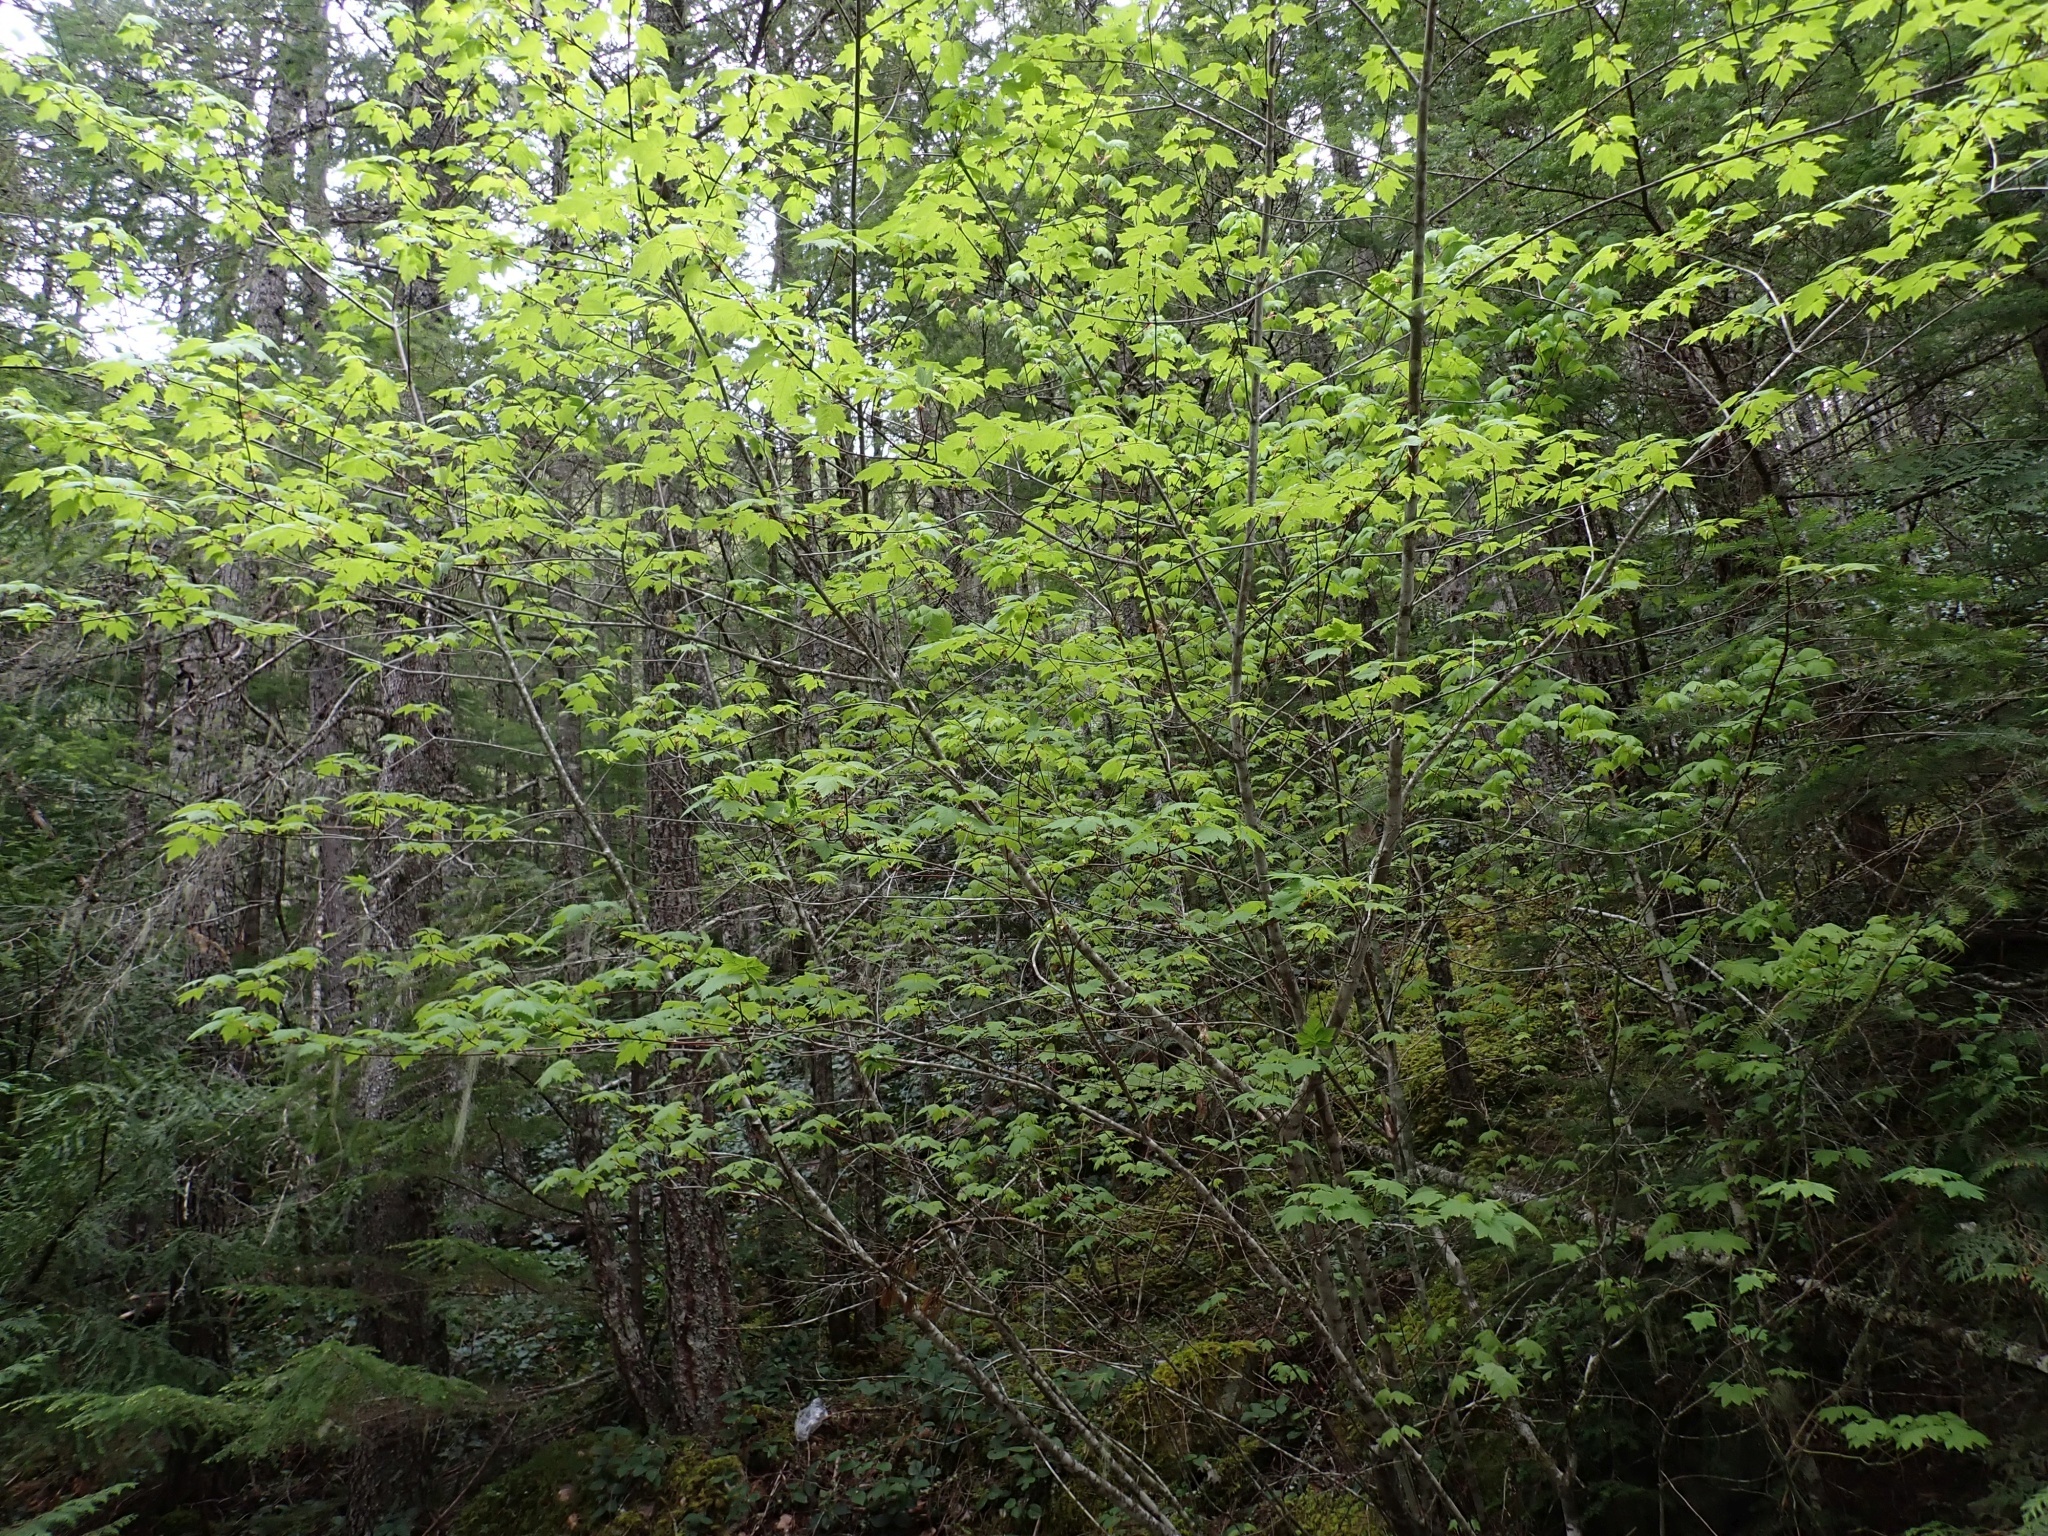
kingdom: Plantae
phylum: Tracheophyta
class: Magnoliopsida
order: Sapindales
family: Sapindaceae
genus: Acer
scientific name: Acer glabrum
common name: Rocky mountain maple
